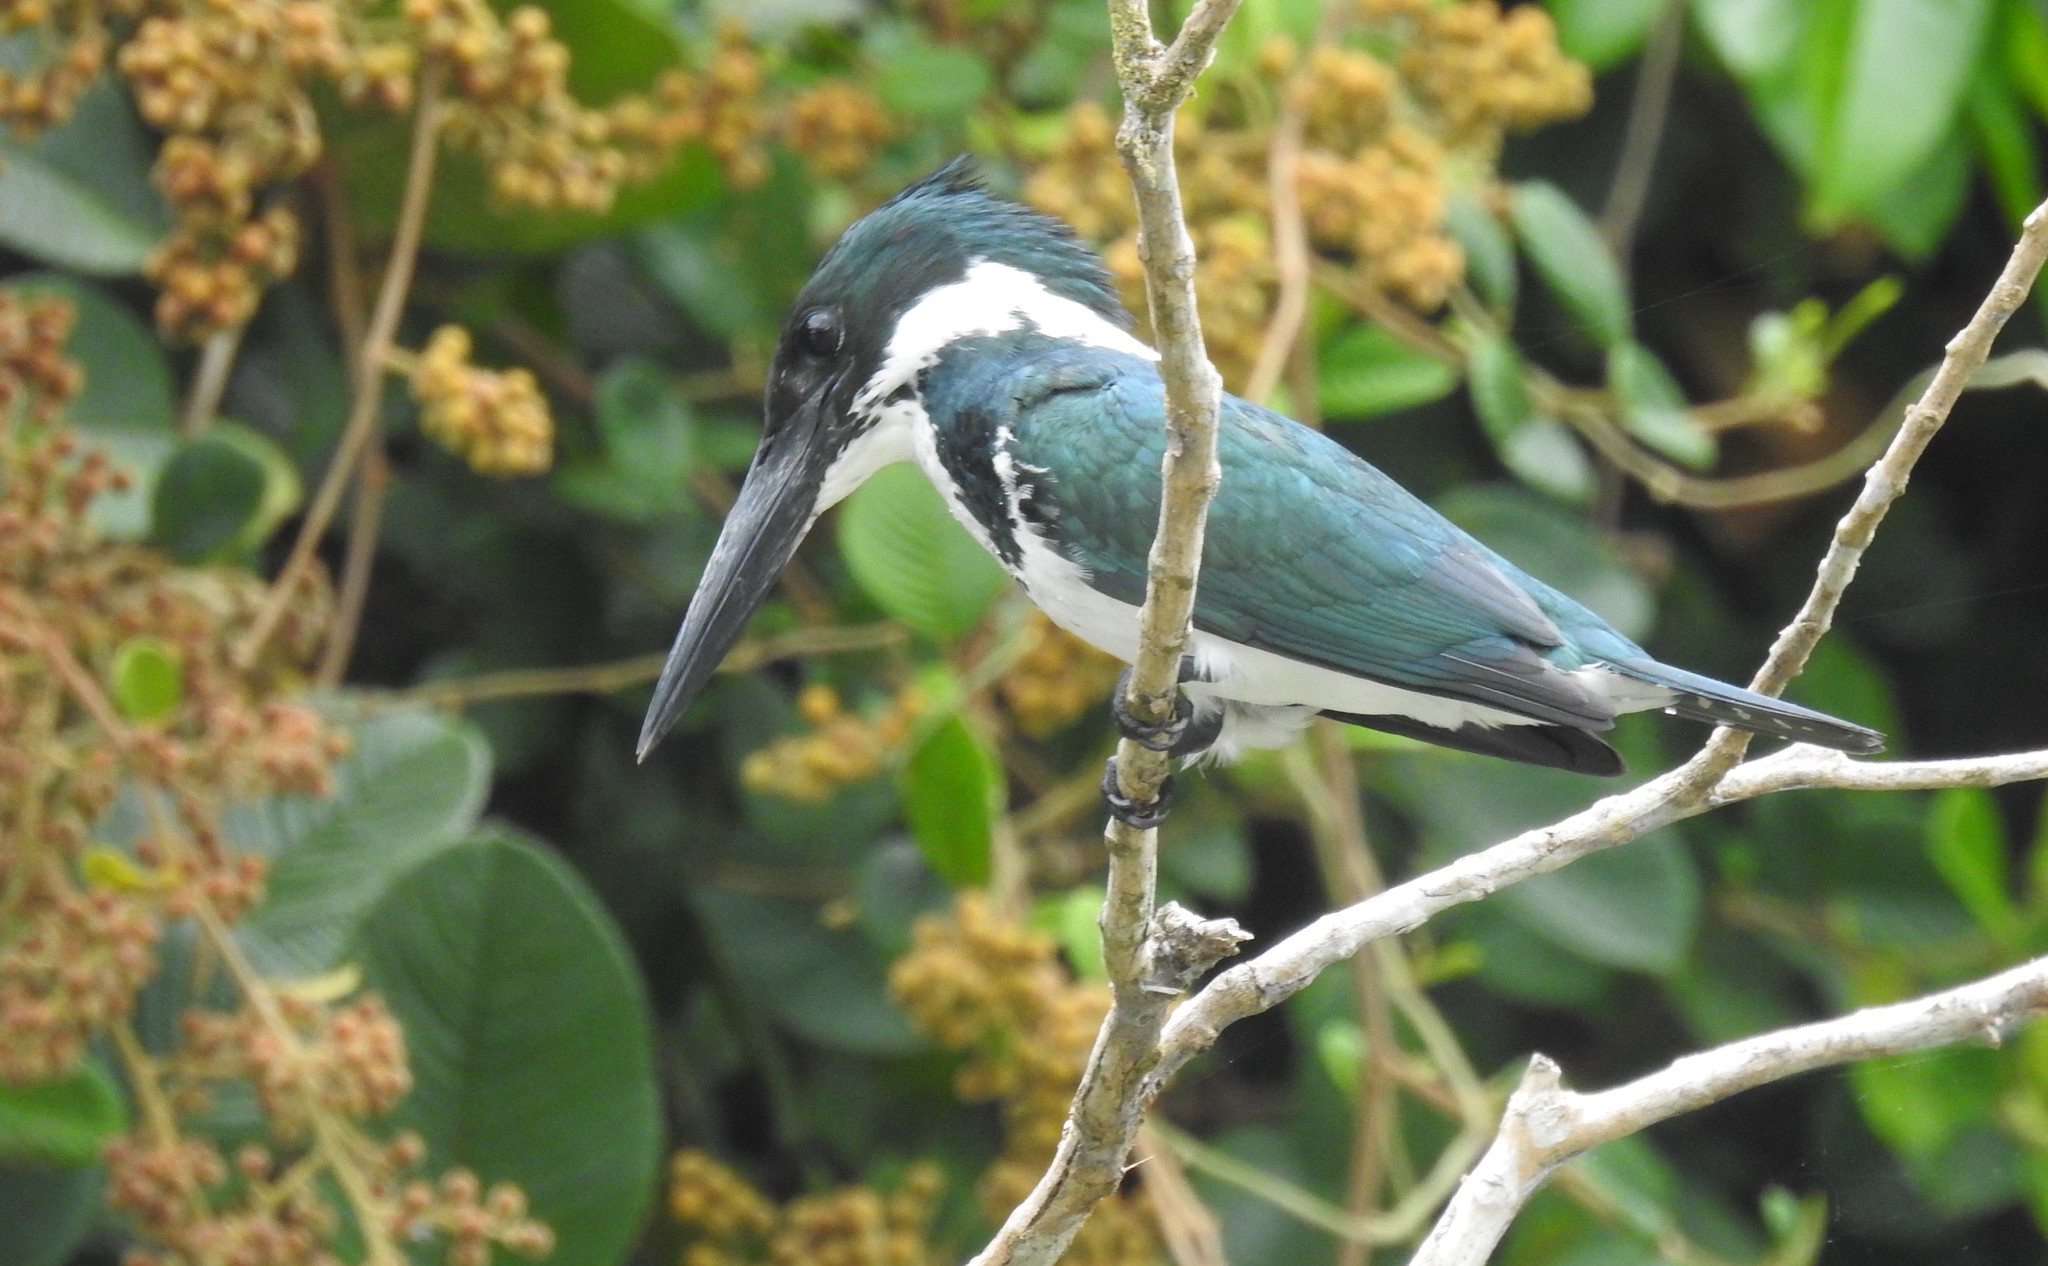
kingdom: Animalia
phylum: Chordata
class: Aves
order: Coraciiformes
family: Alcedinidae
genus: Chloroceryle
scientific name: Chloroceryle amazona
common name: Amazon kingfisher
